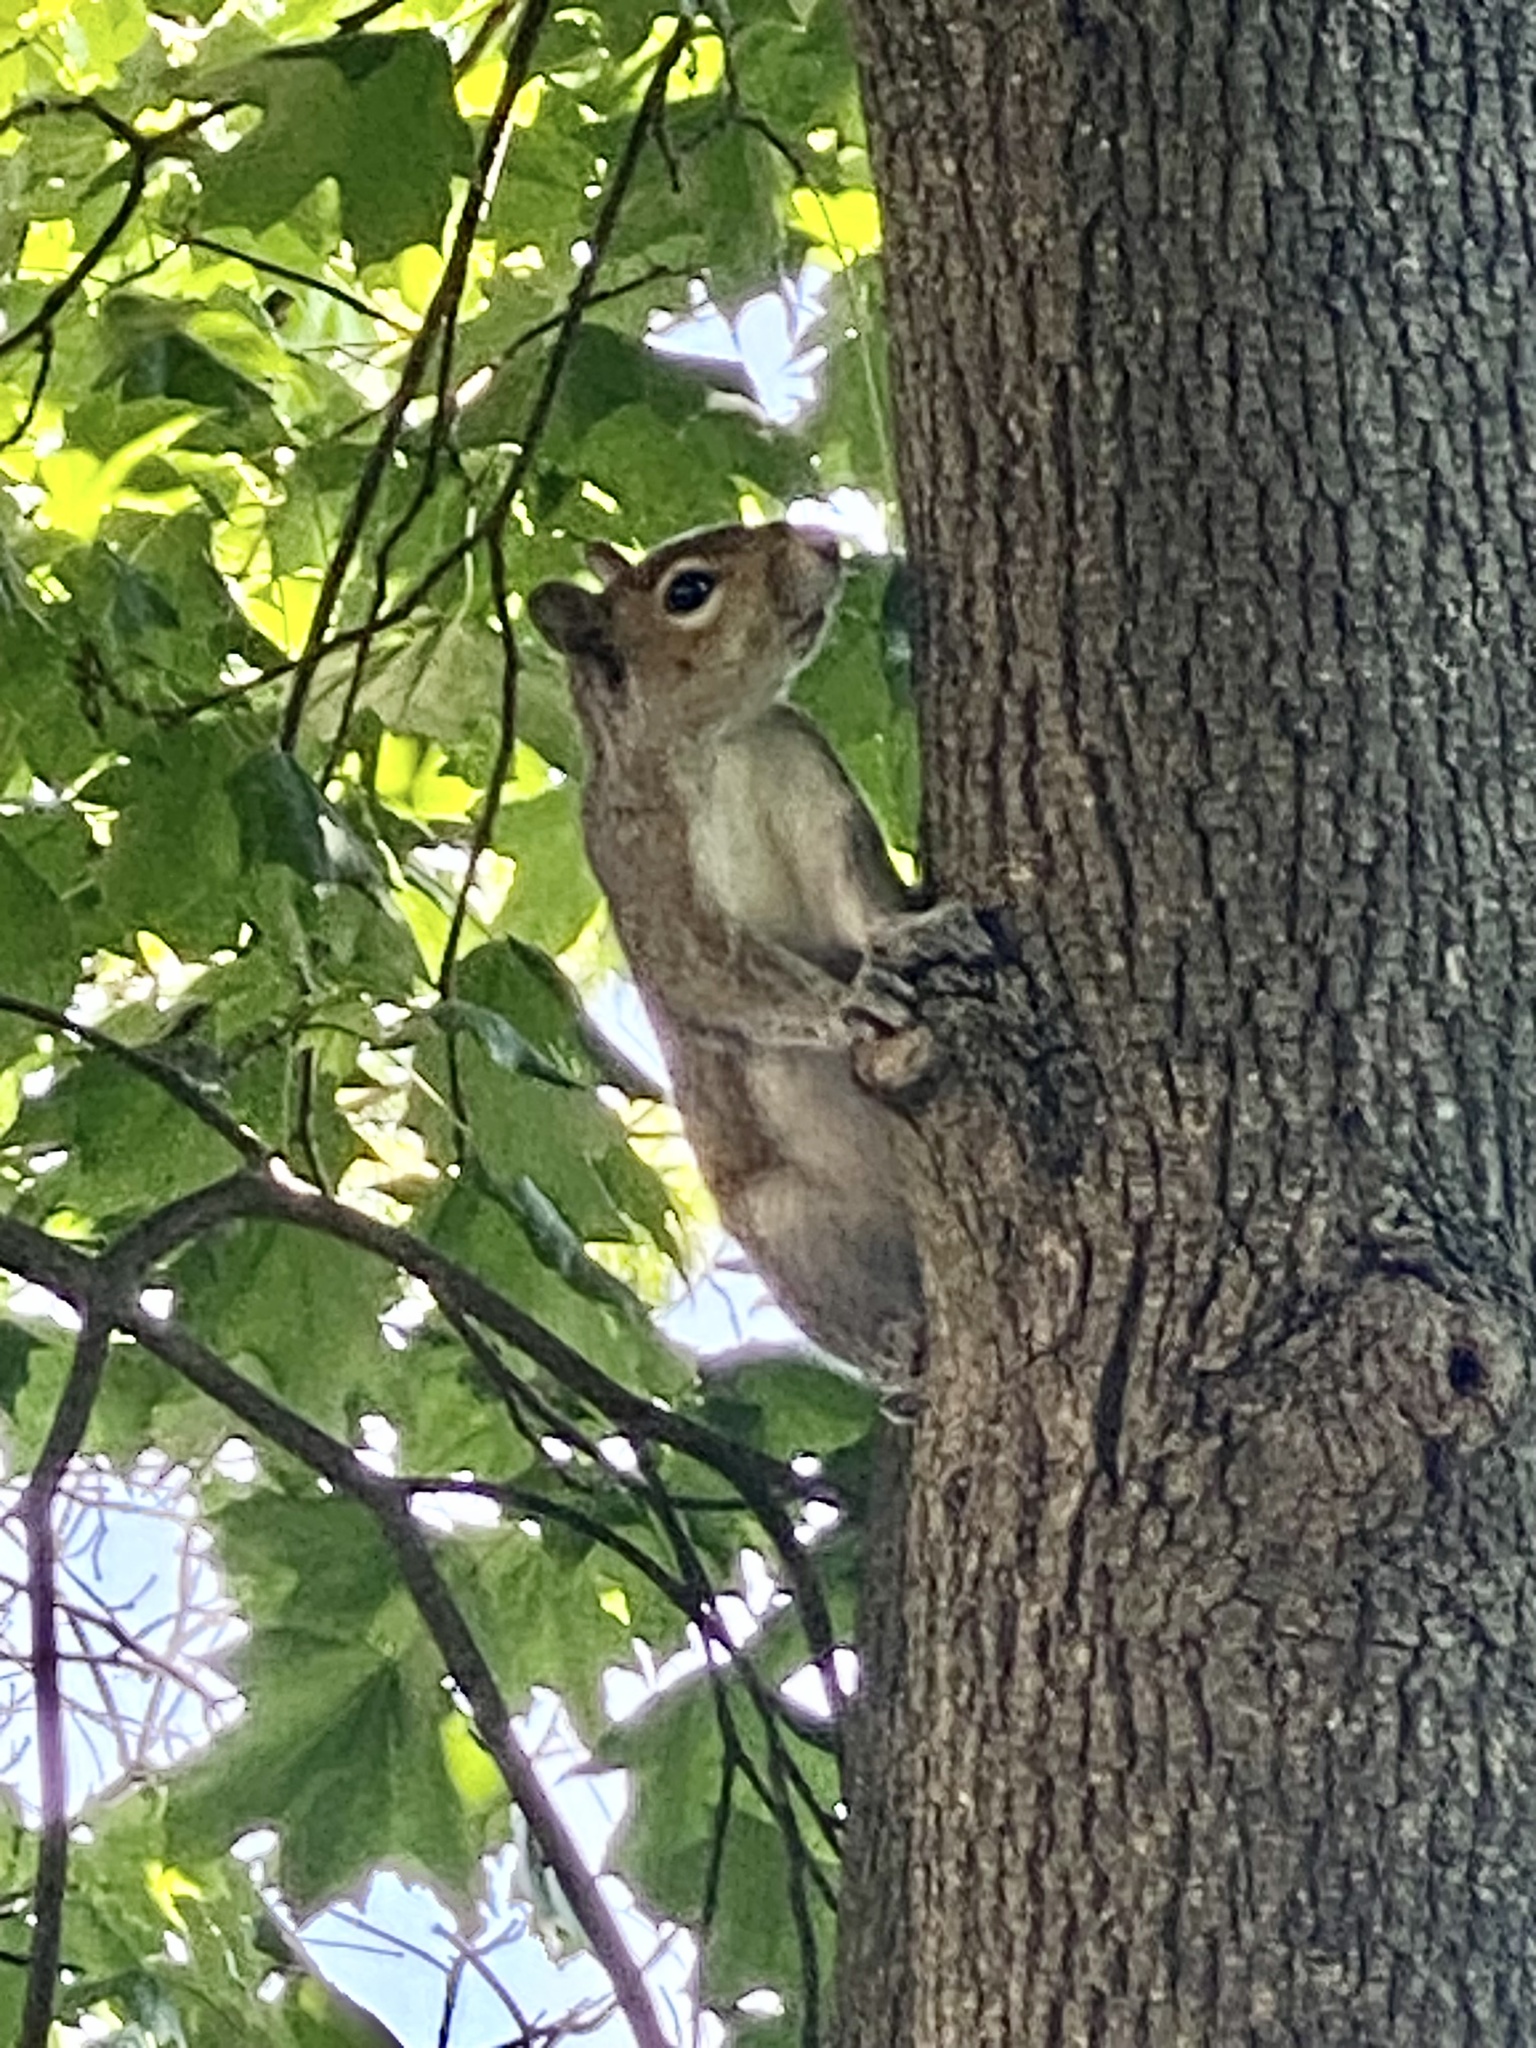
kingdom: Animalia
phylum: Chordata
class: Mammalia
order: Rodentia
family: Sciuridae
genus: Sciurus
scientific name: Sciurus carolinensis
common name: Eastern gray squirrel
